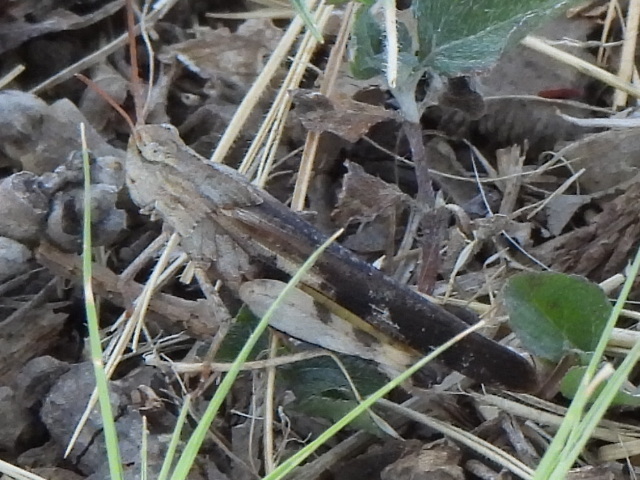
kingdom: Animalia
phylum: Arthropoda
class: Insecta
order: Orthoptera
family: Acrididae
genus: Chortophaga
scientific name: Chortophaga viridifasciata
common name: Green-striped grasshopper
